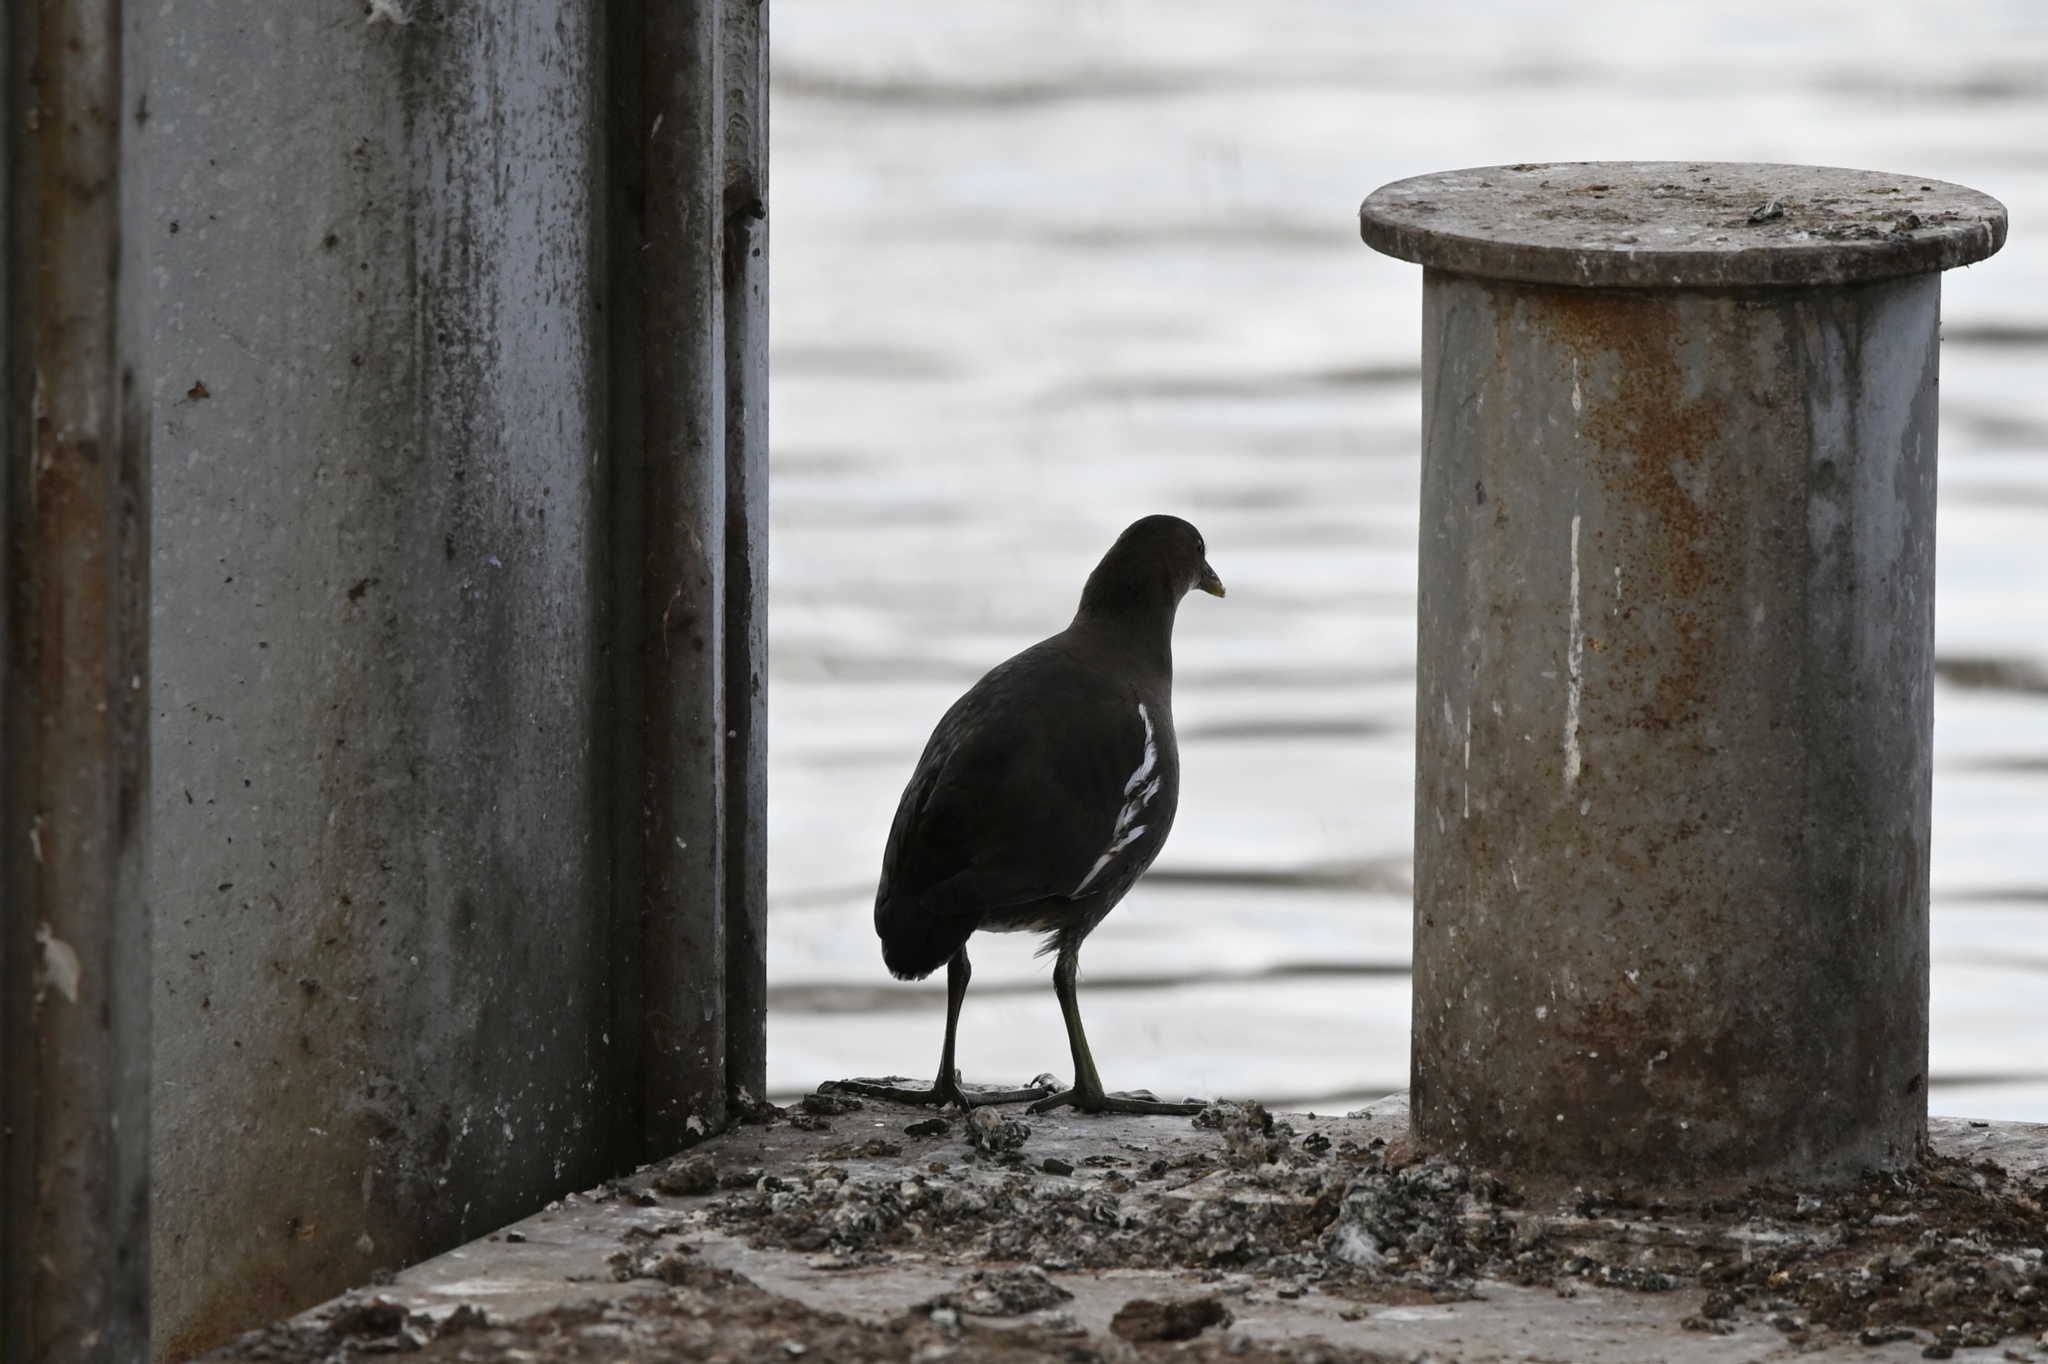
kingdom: Animalia
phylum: Chordata
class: Aves
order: Gruiformes
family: Rallidae
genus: Gallinula
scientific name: Gallinula chloropus
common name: Common moorhen
